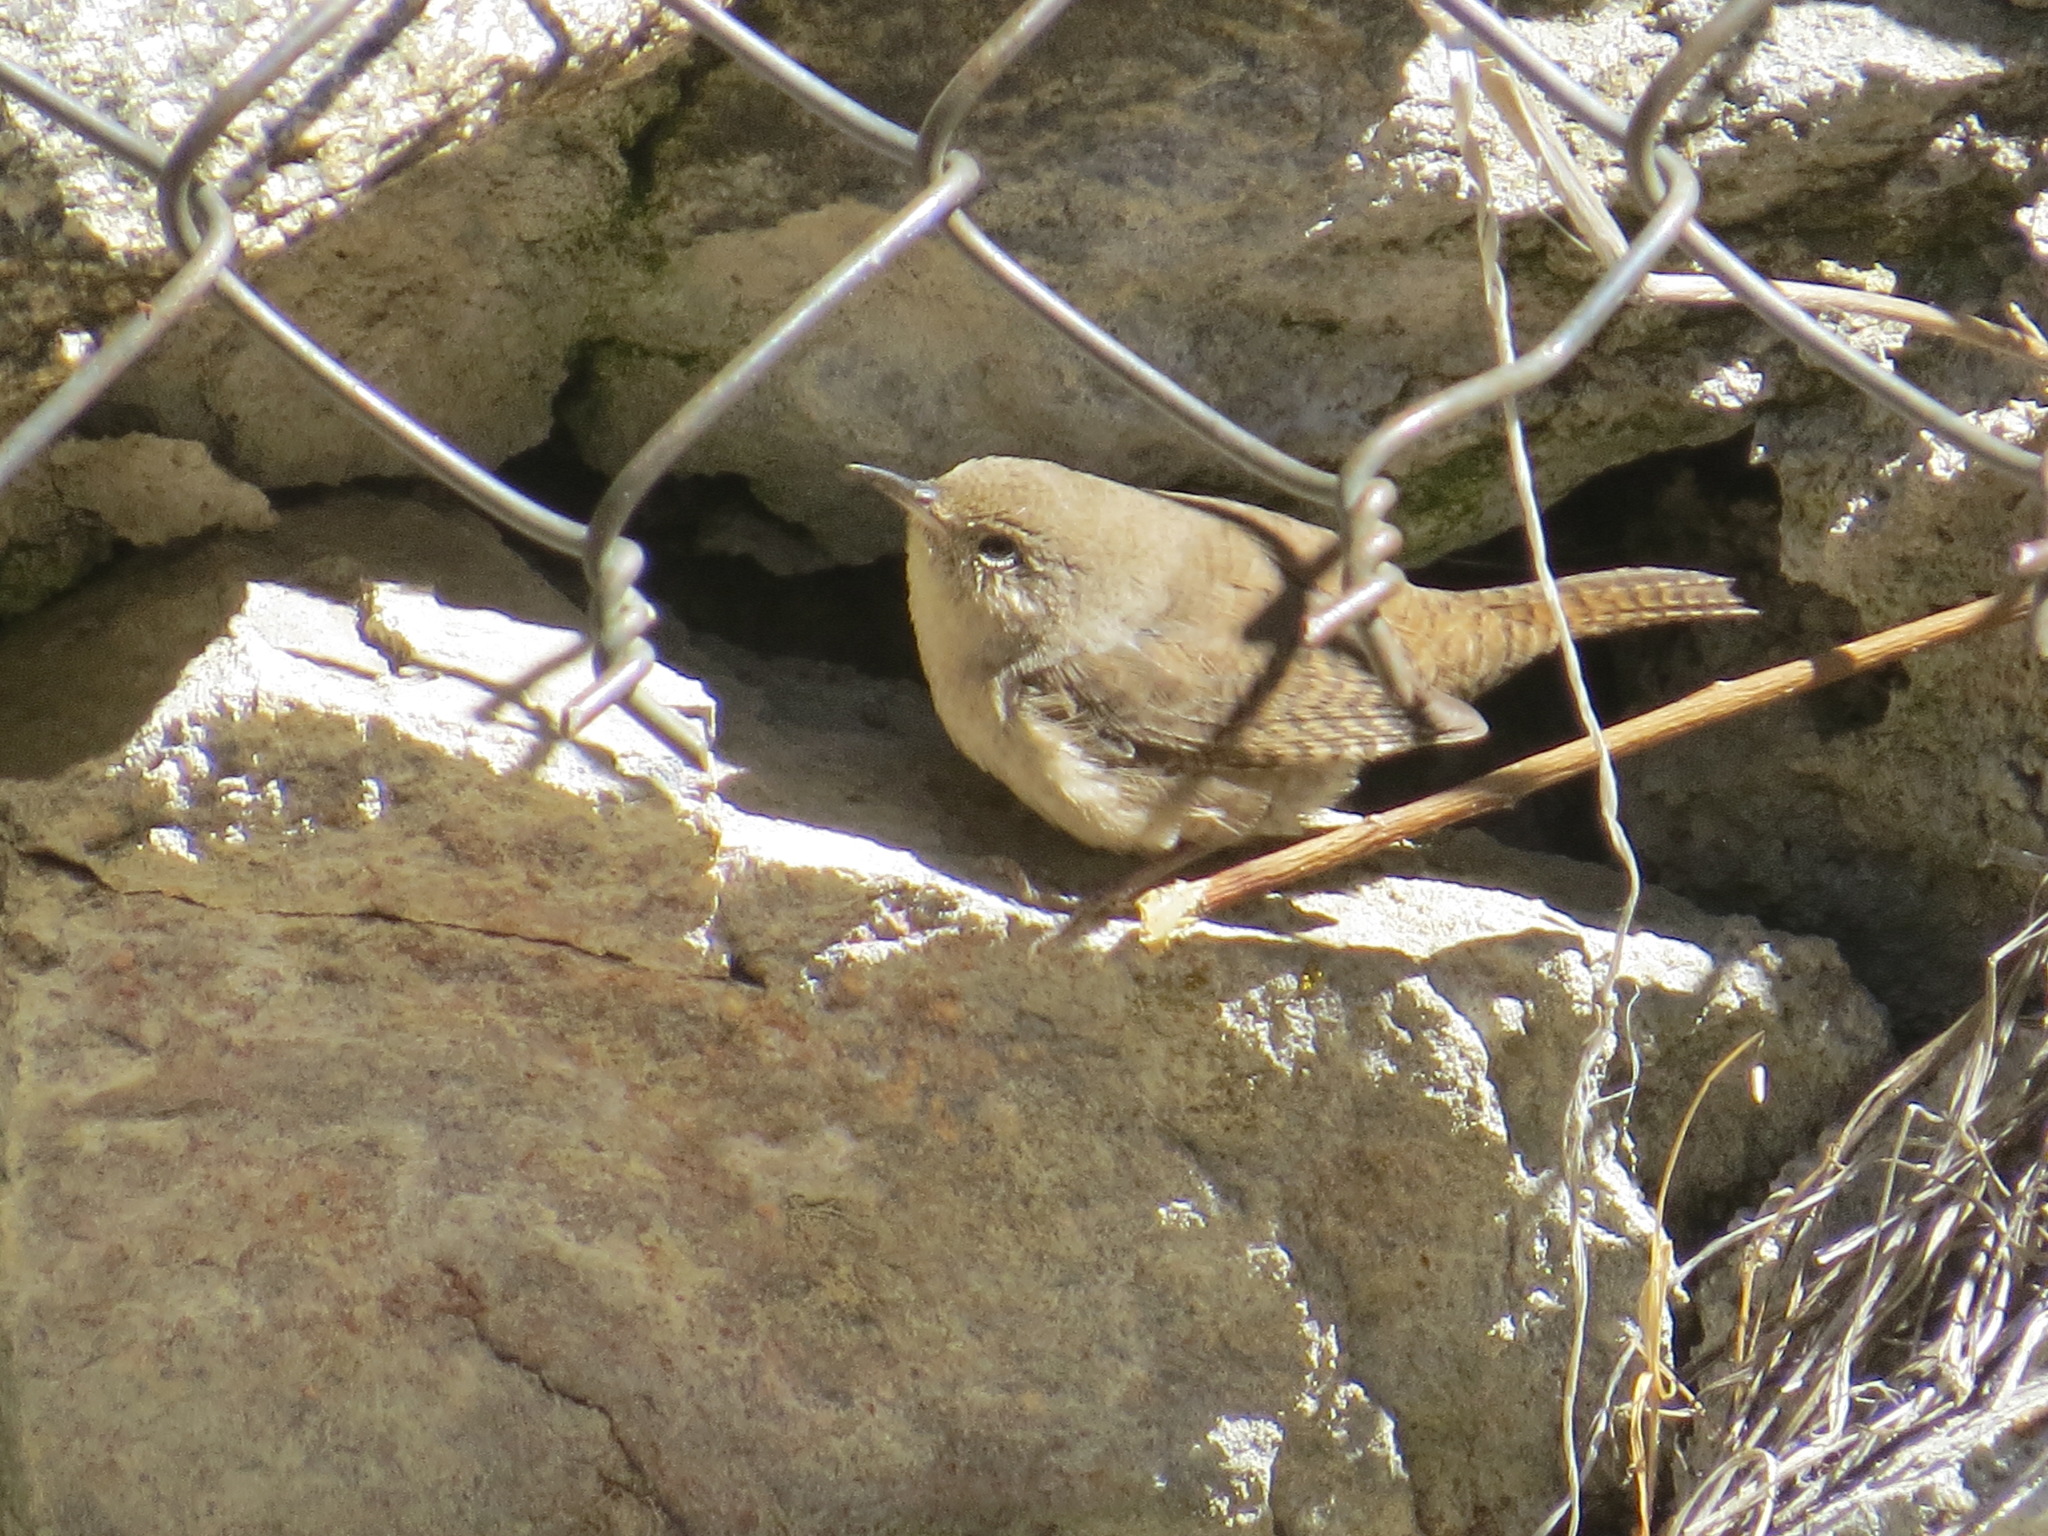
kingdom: Animalia
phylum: Chordata
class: Aves
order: Passeriformes
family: Troglodytidae
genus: Troglodytes
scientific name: Troglodytes aedon
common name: House wren
